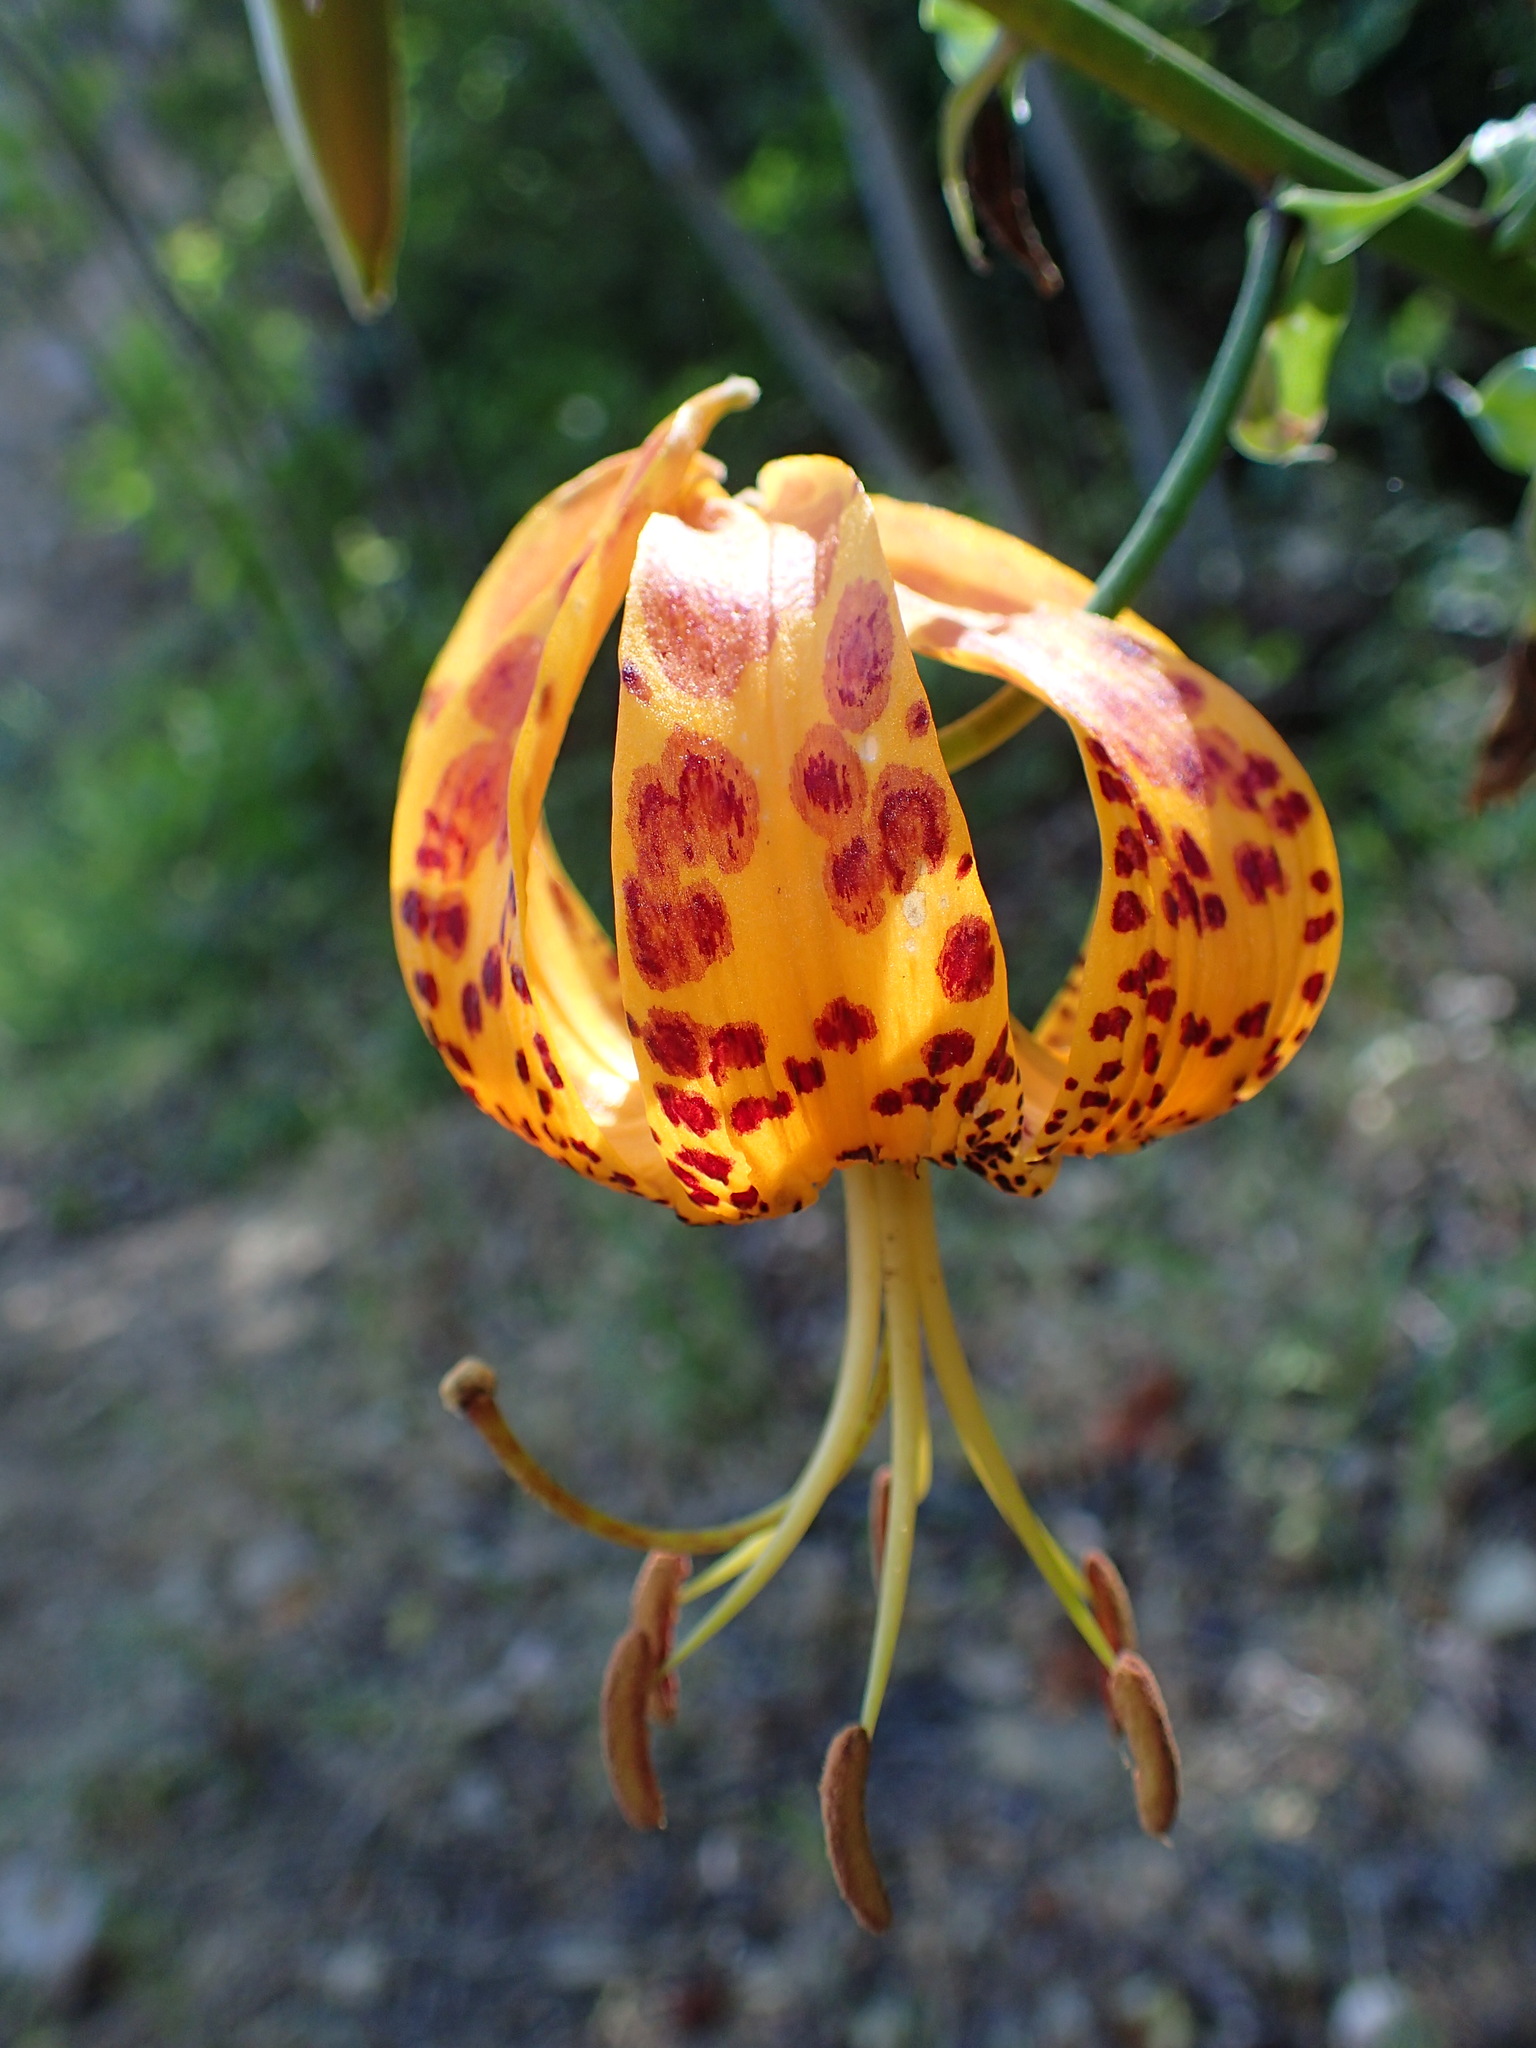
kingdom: Plantae
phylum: Tracheophyta
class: Liliopsida
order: Liliales
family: Liliaceae
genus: Lilium
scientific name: Lilium humboldtii
